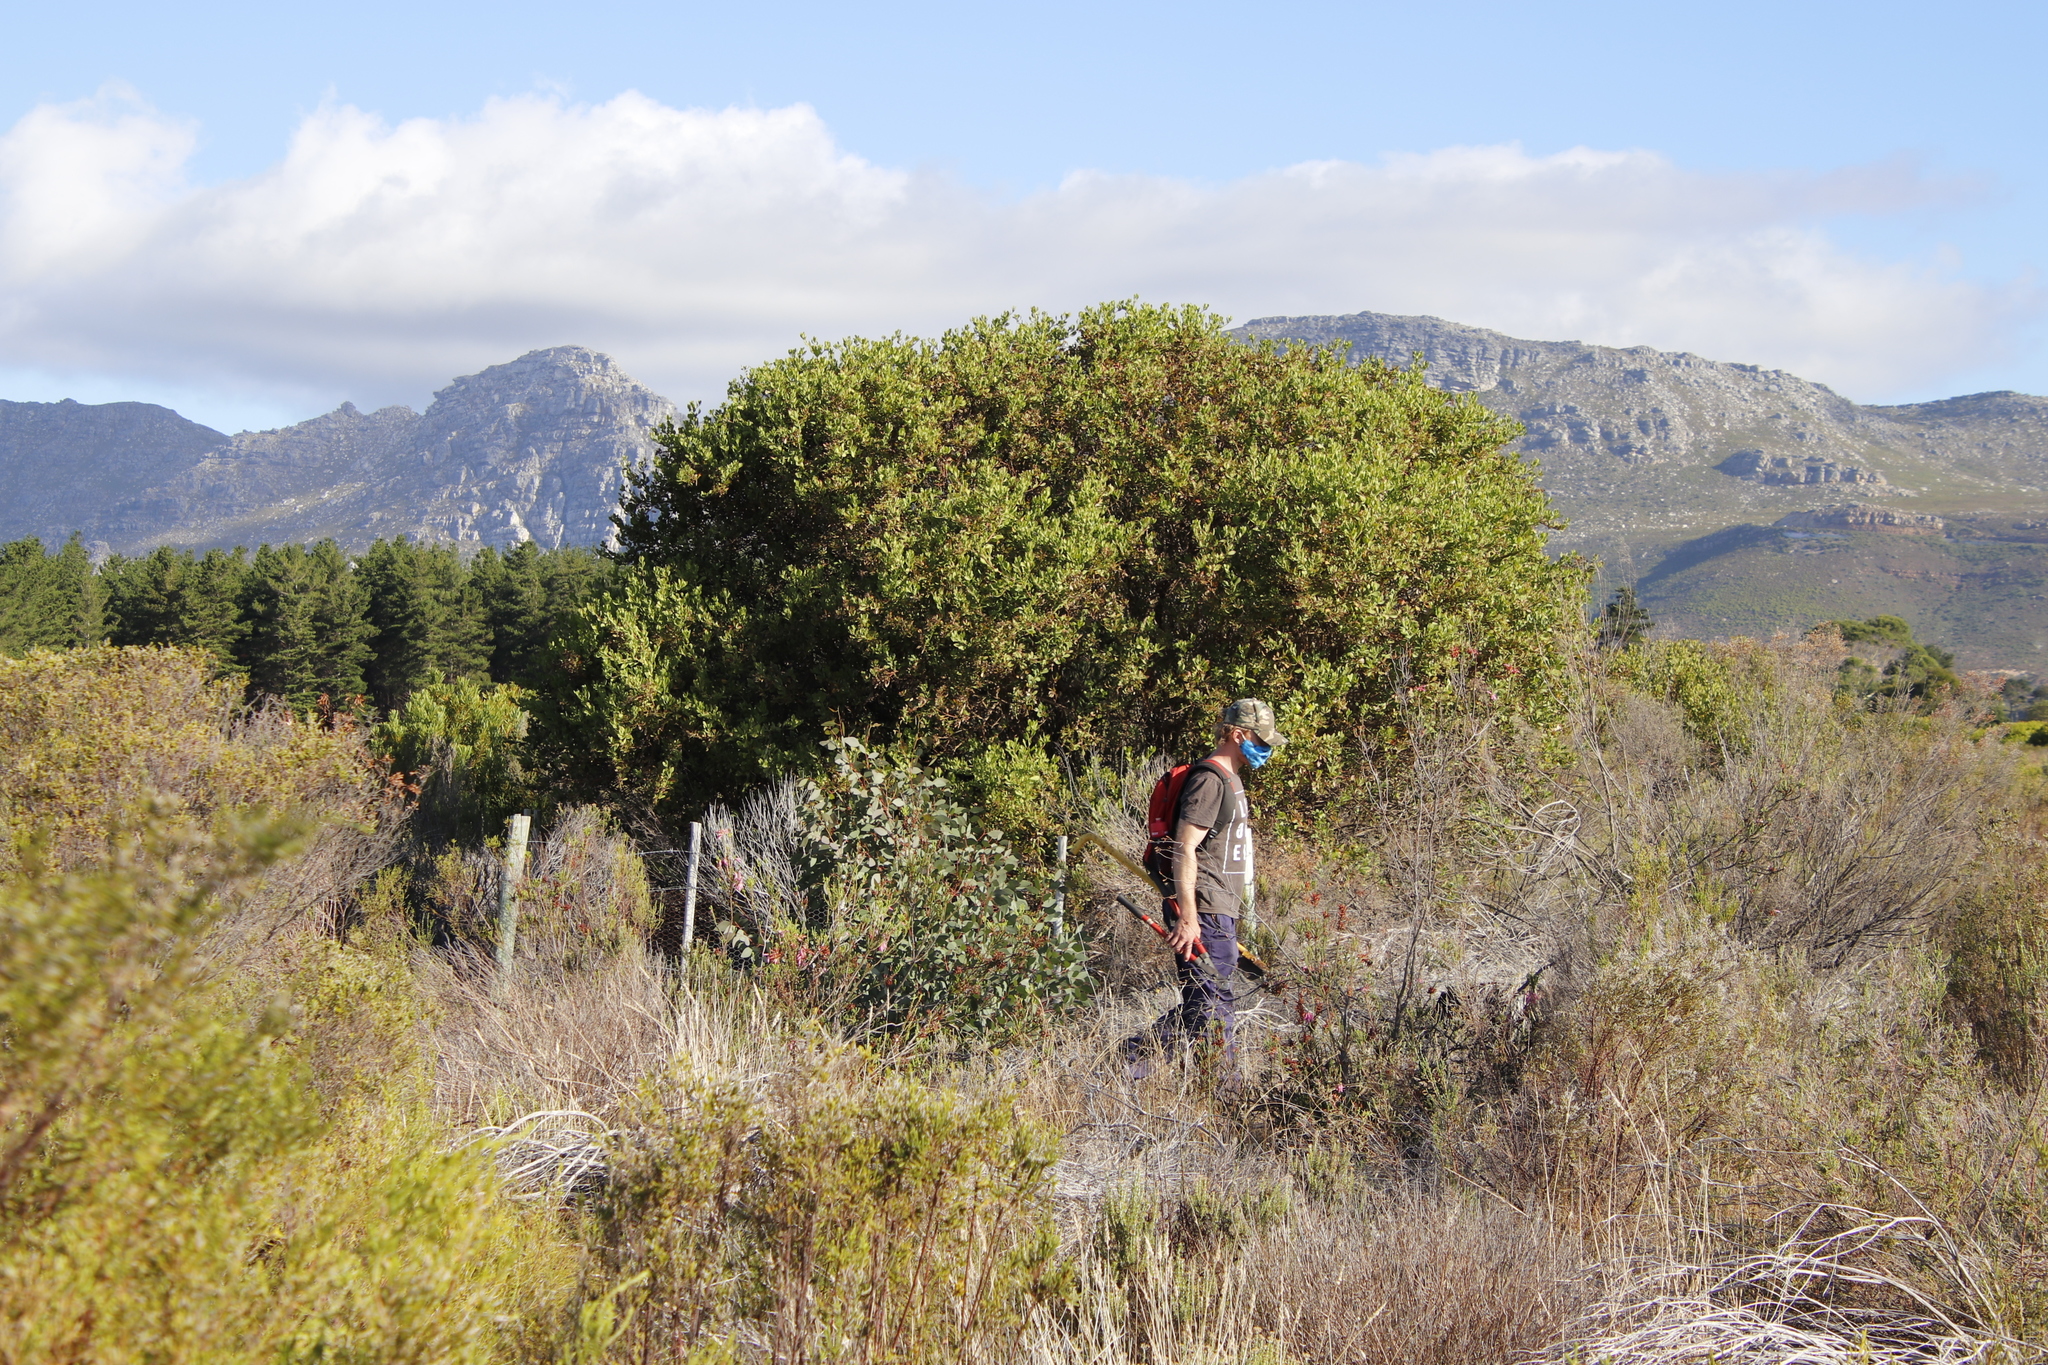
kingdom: Plantae
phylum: Tracheophyta
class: Magnoliopsida
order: Asterales
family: Asteraceae
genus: Osteospermum
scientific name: Osteospermum moniliferum
